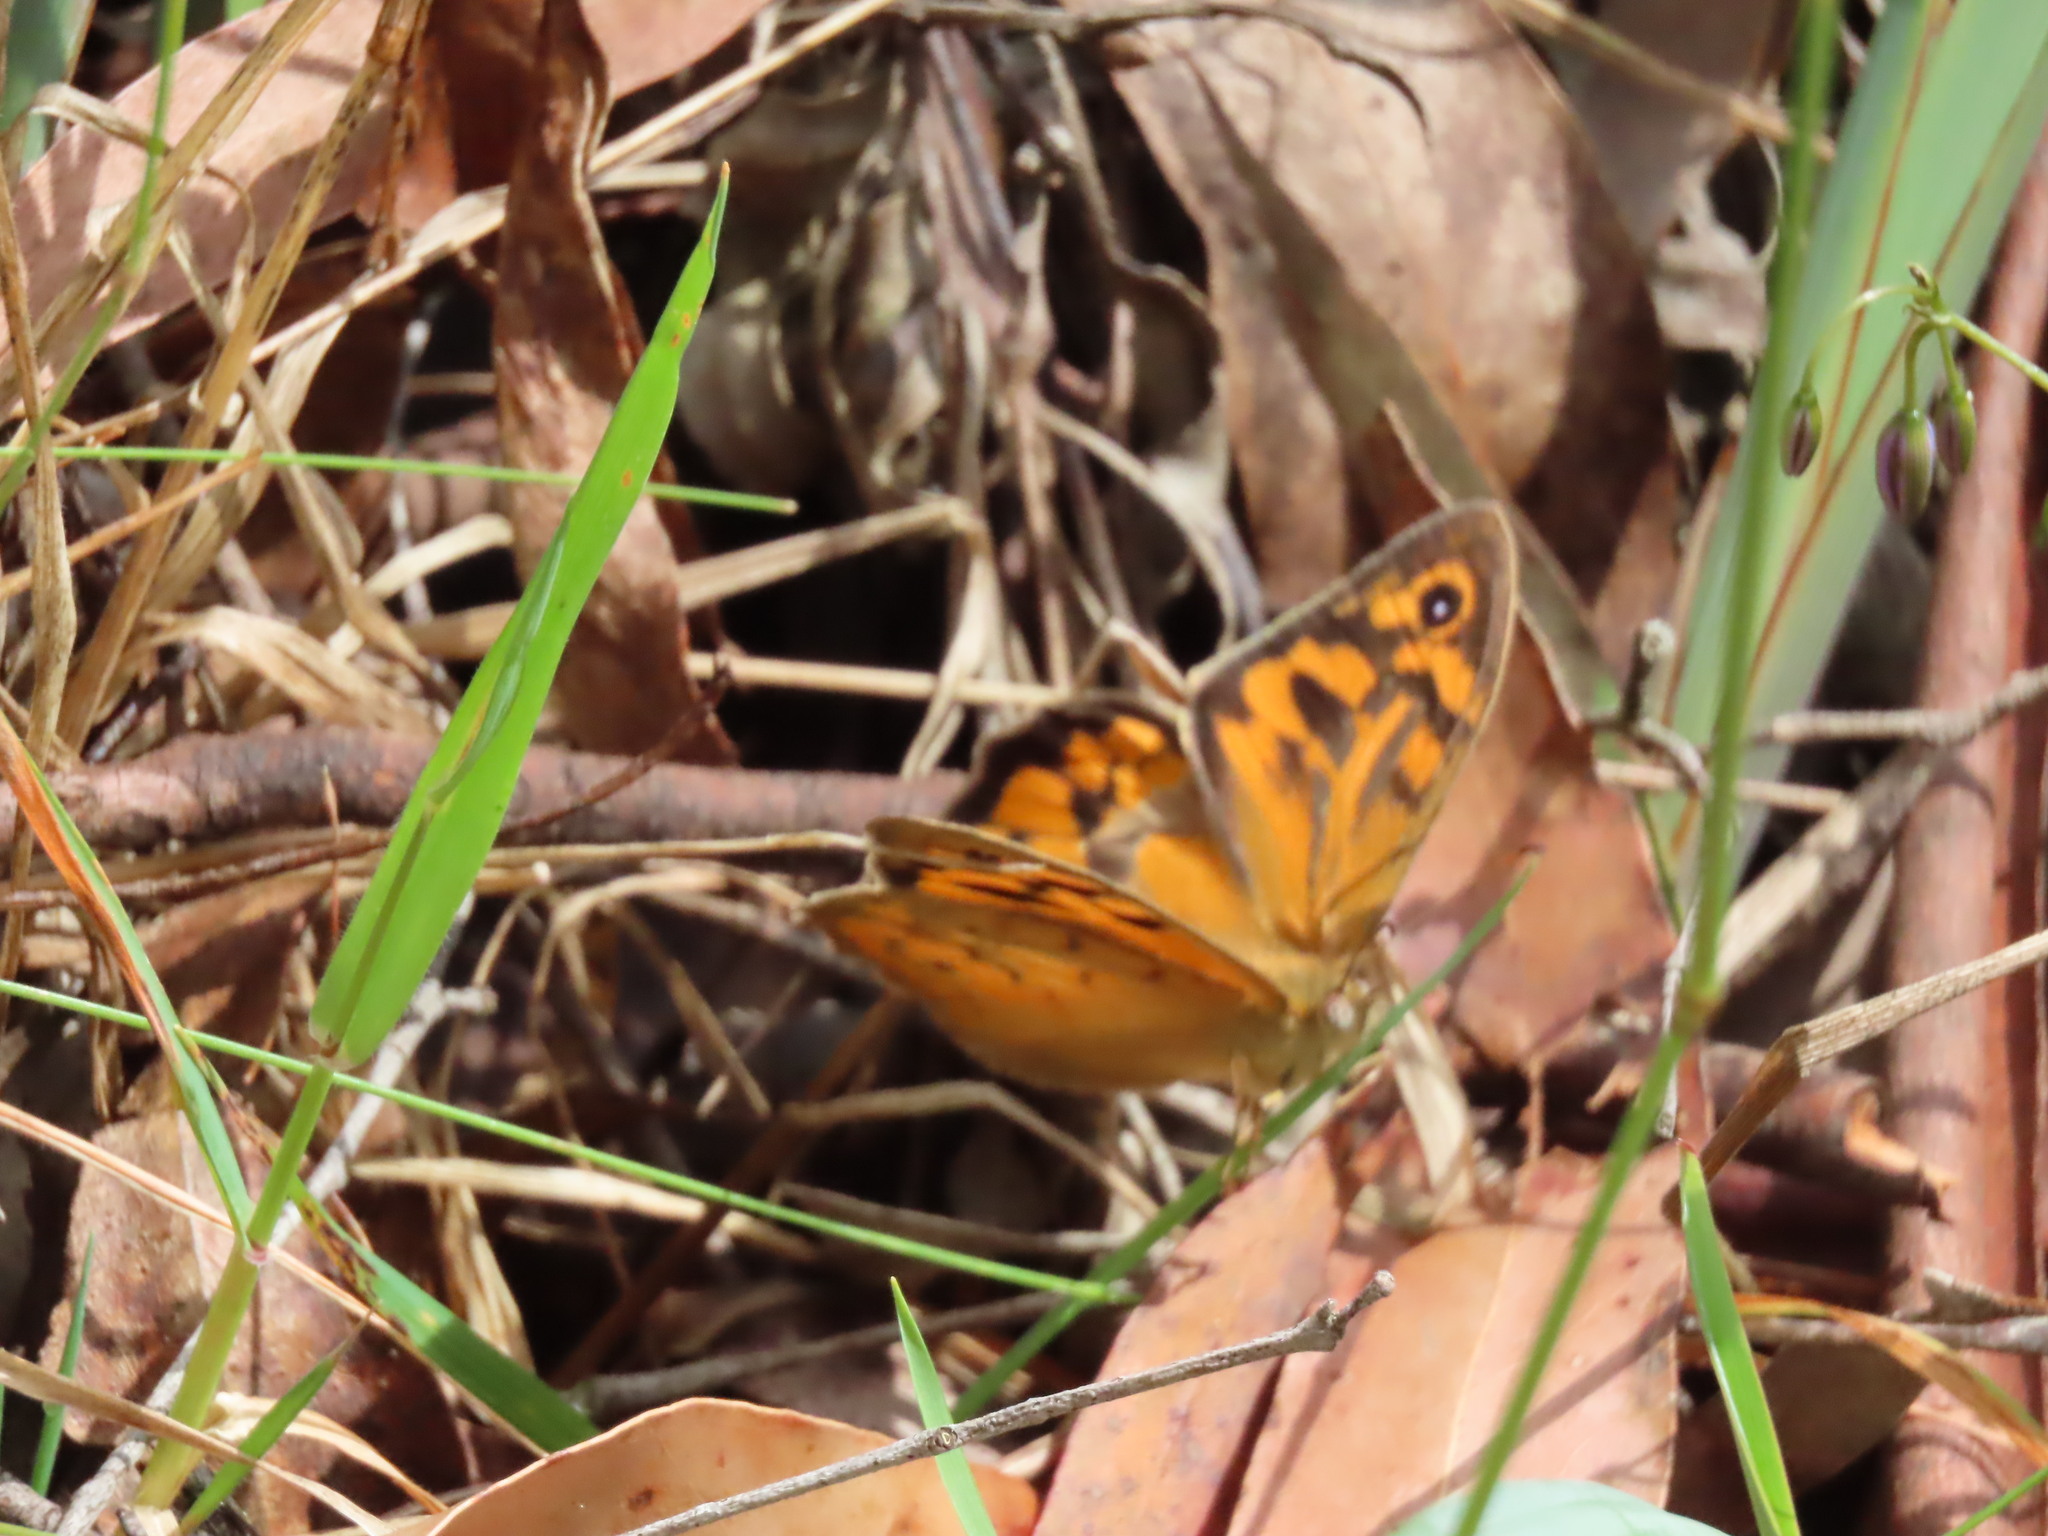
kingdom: Animalia
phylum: Arthropoda
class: Insecta
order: Lepidoptera
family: Nymphalidae
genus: Heteronympha
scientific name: Heteronympha merope
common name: Common brown
